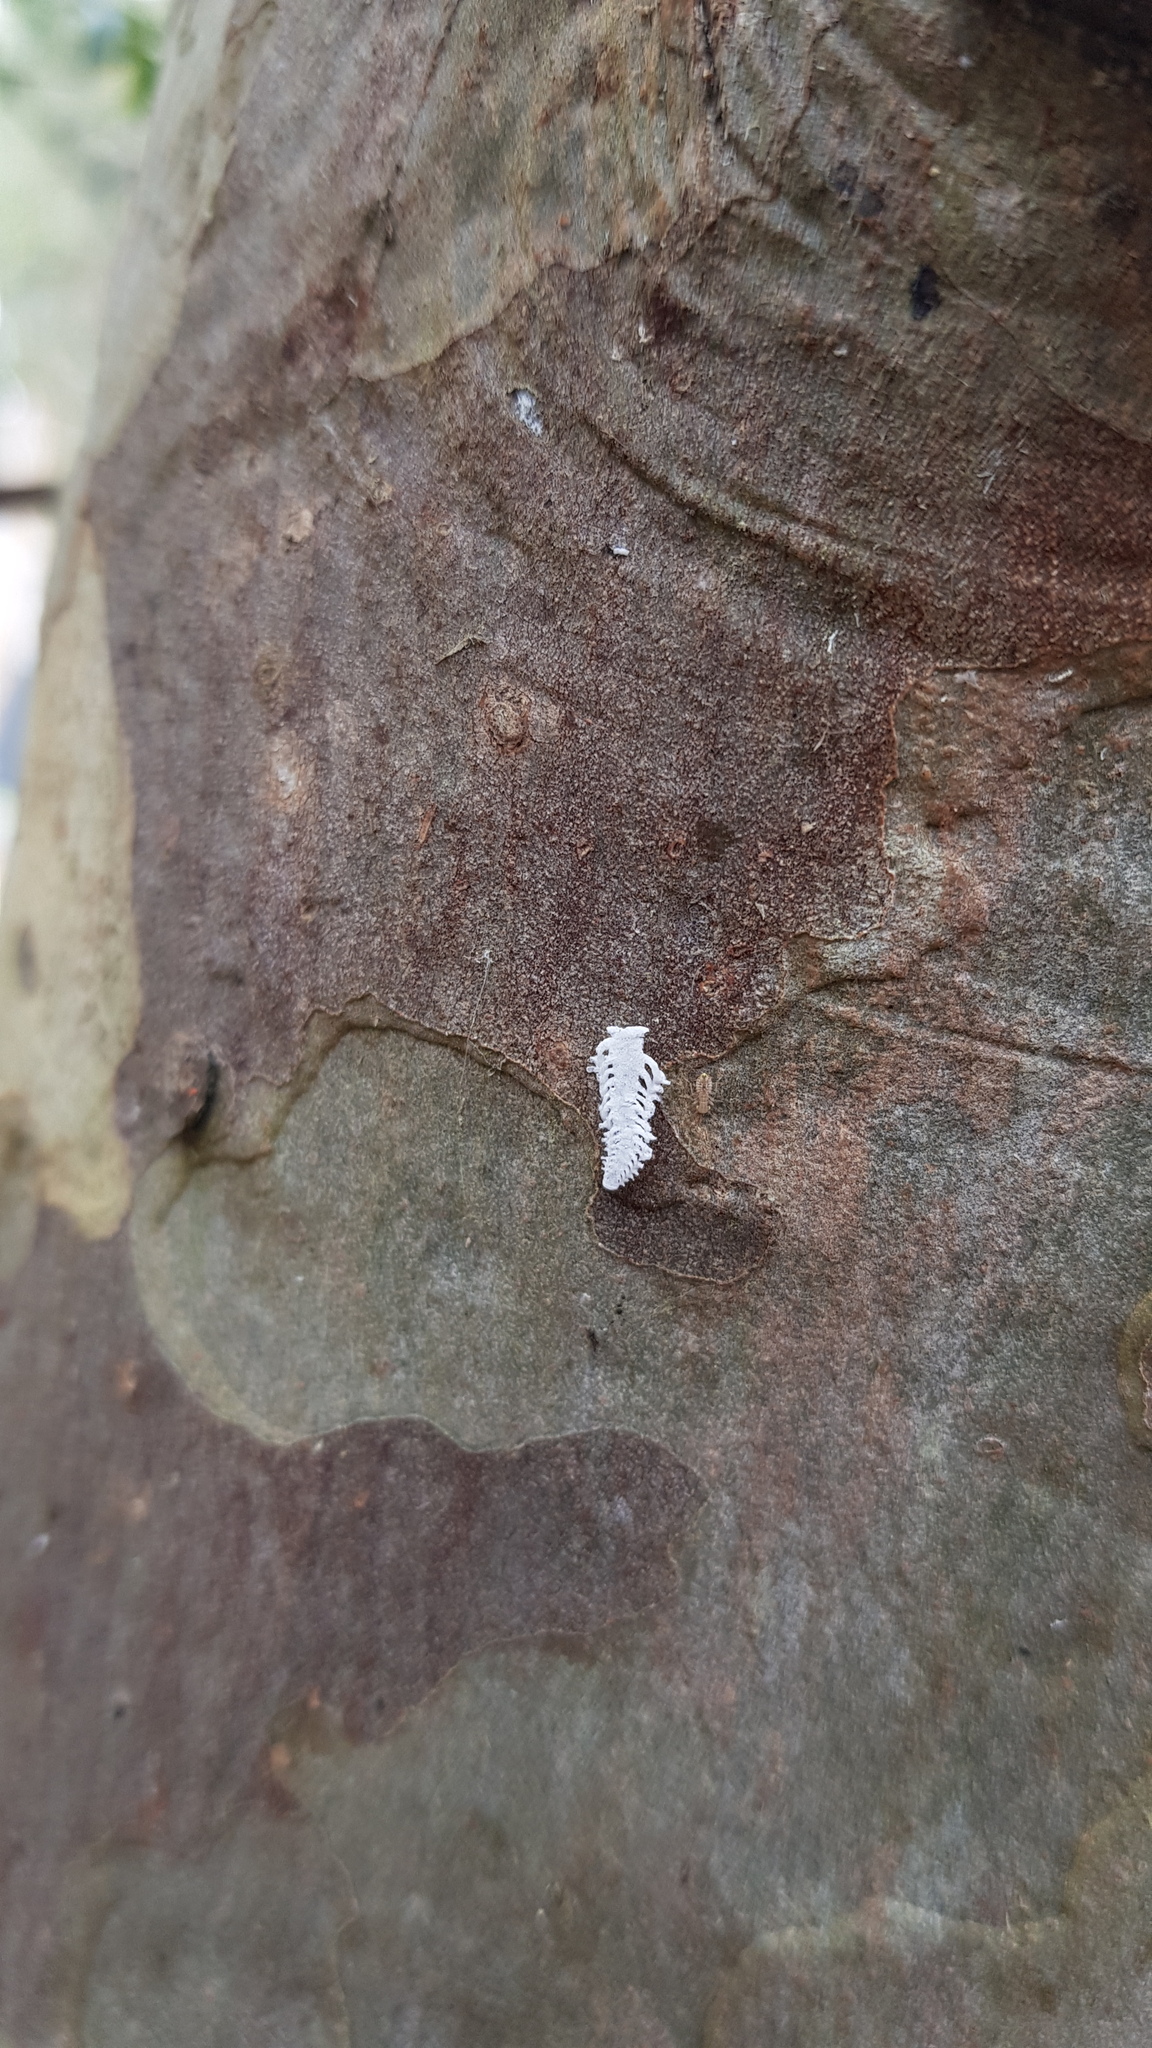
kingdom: Animalia
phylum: Arthropoda
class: Insecta
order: Hemiptera
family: Aphalaridae
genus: Eucalyptolyma
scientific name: Eucalyptolyma maideni
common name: Spotted gum lerp psyllid
